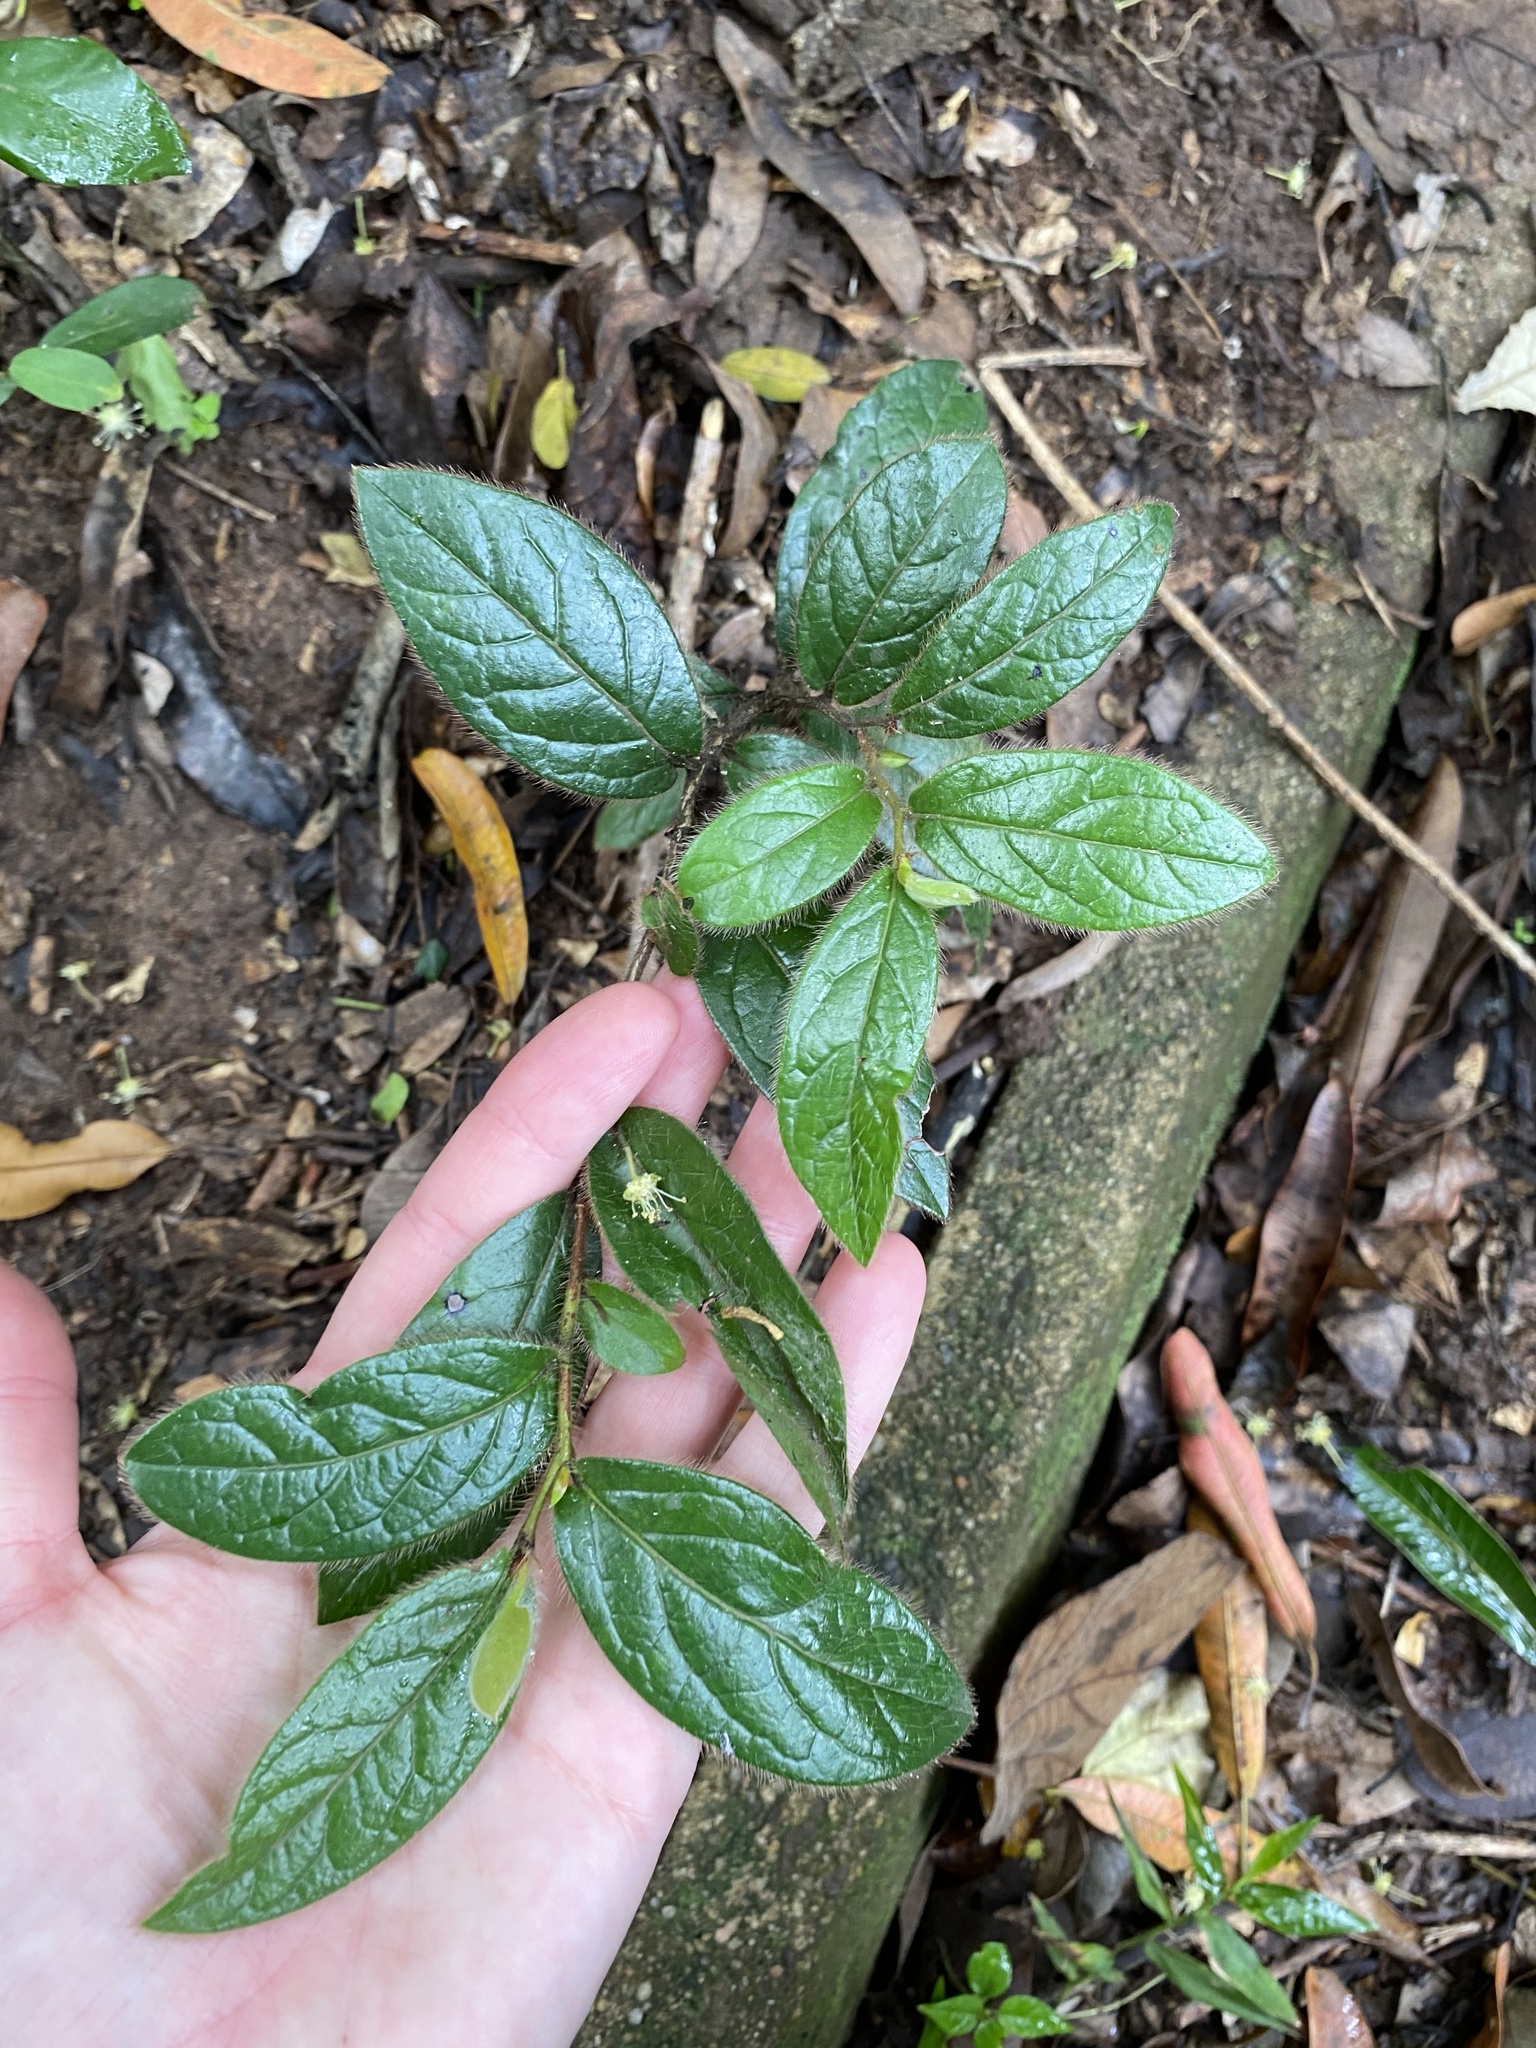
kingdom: Plantae
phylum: Tracheophyta
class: Magnoliopsida
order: Ericales
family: Ebenaceae
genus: Diospyros
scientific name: Diospyros scabrida
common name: Coastal bladder-nut
